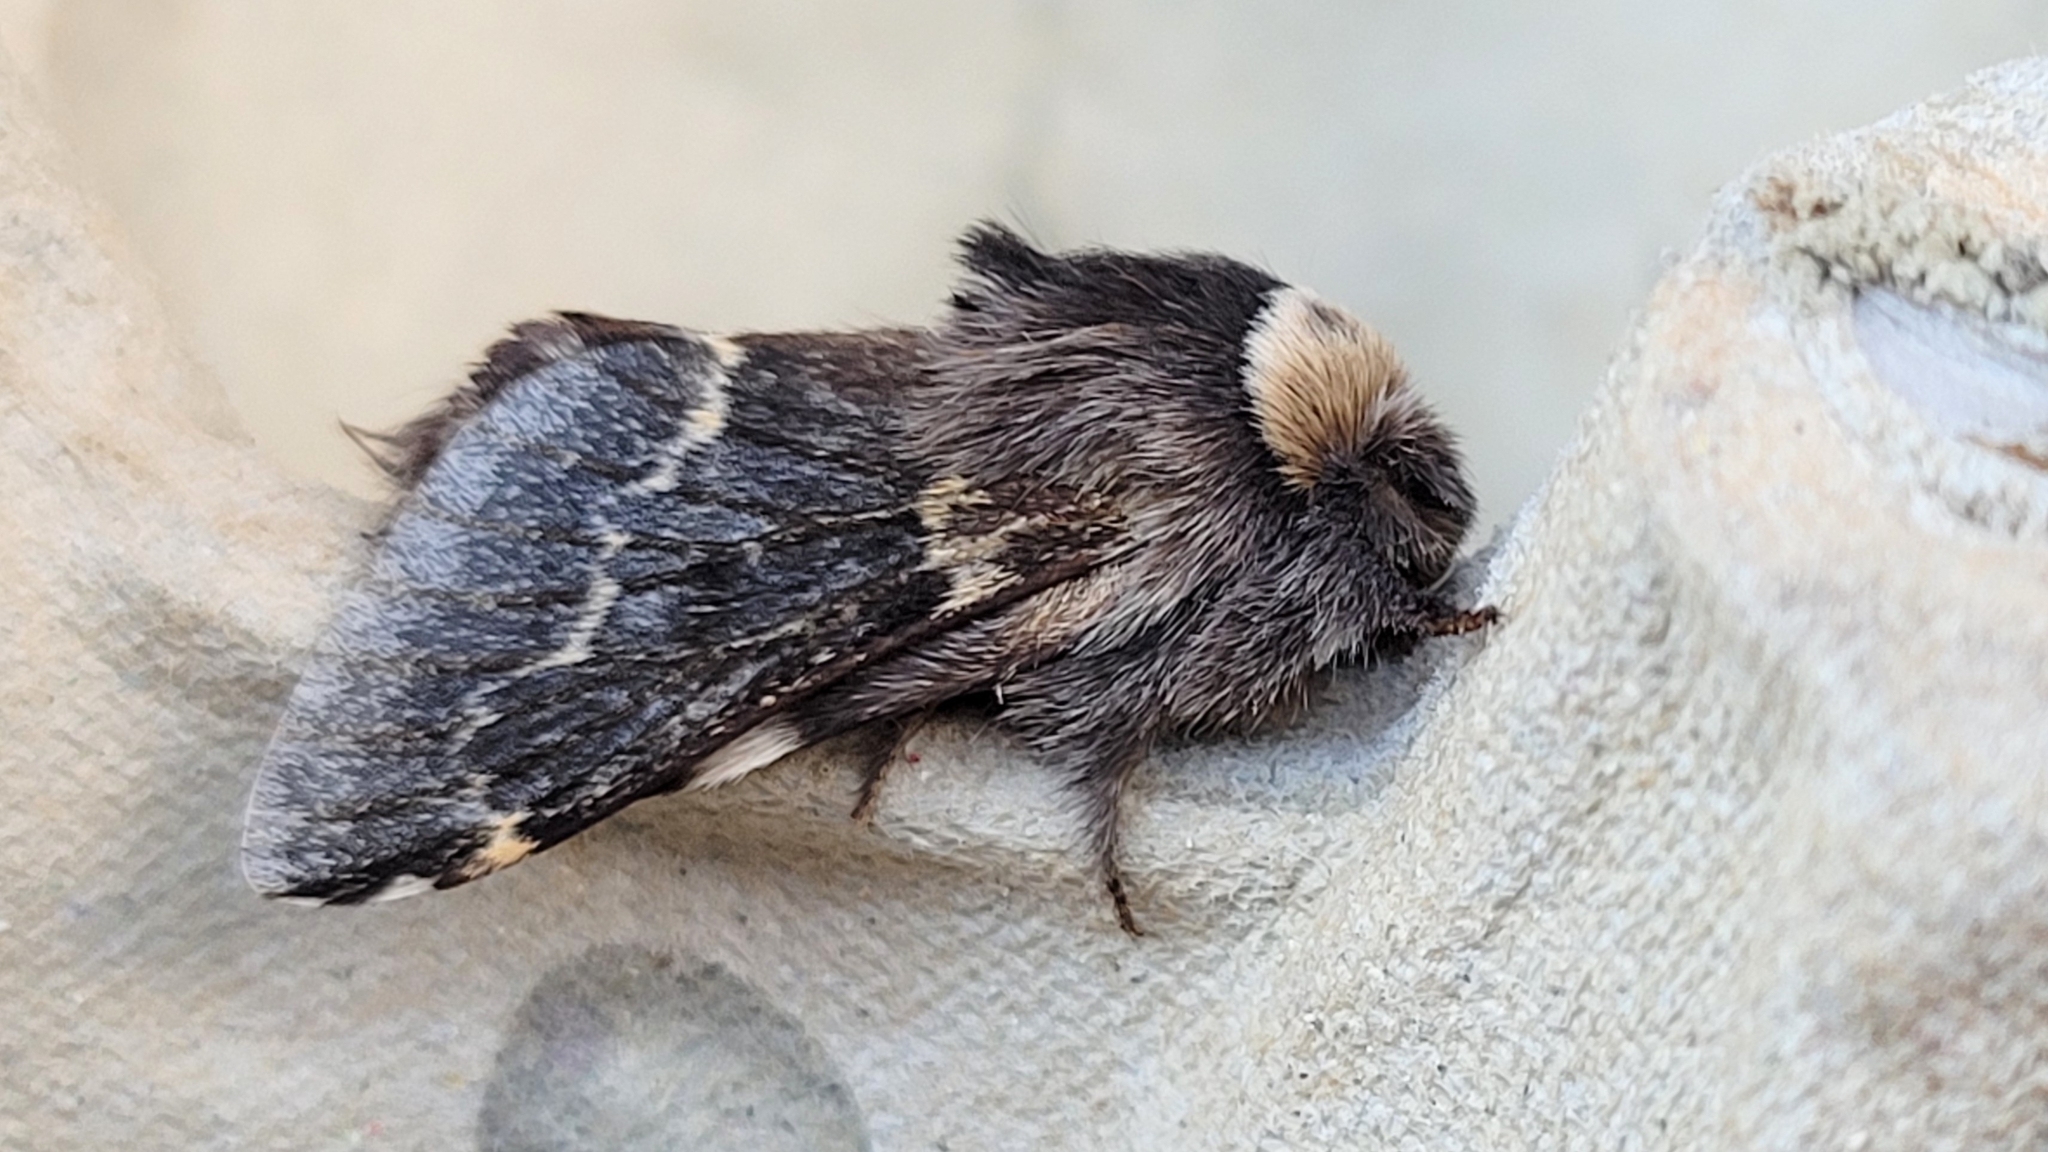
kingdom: Animalia
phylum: Arthropoda
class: Insecta
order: Lepidoptera
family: Lasiocampidae
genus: Poecilocampa
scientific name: Poecilocampa populi
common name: December moth
